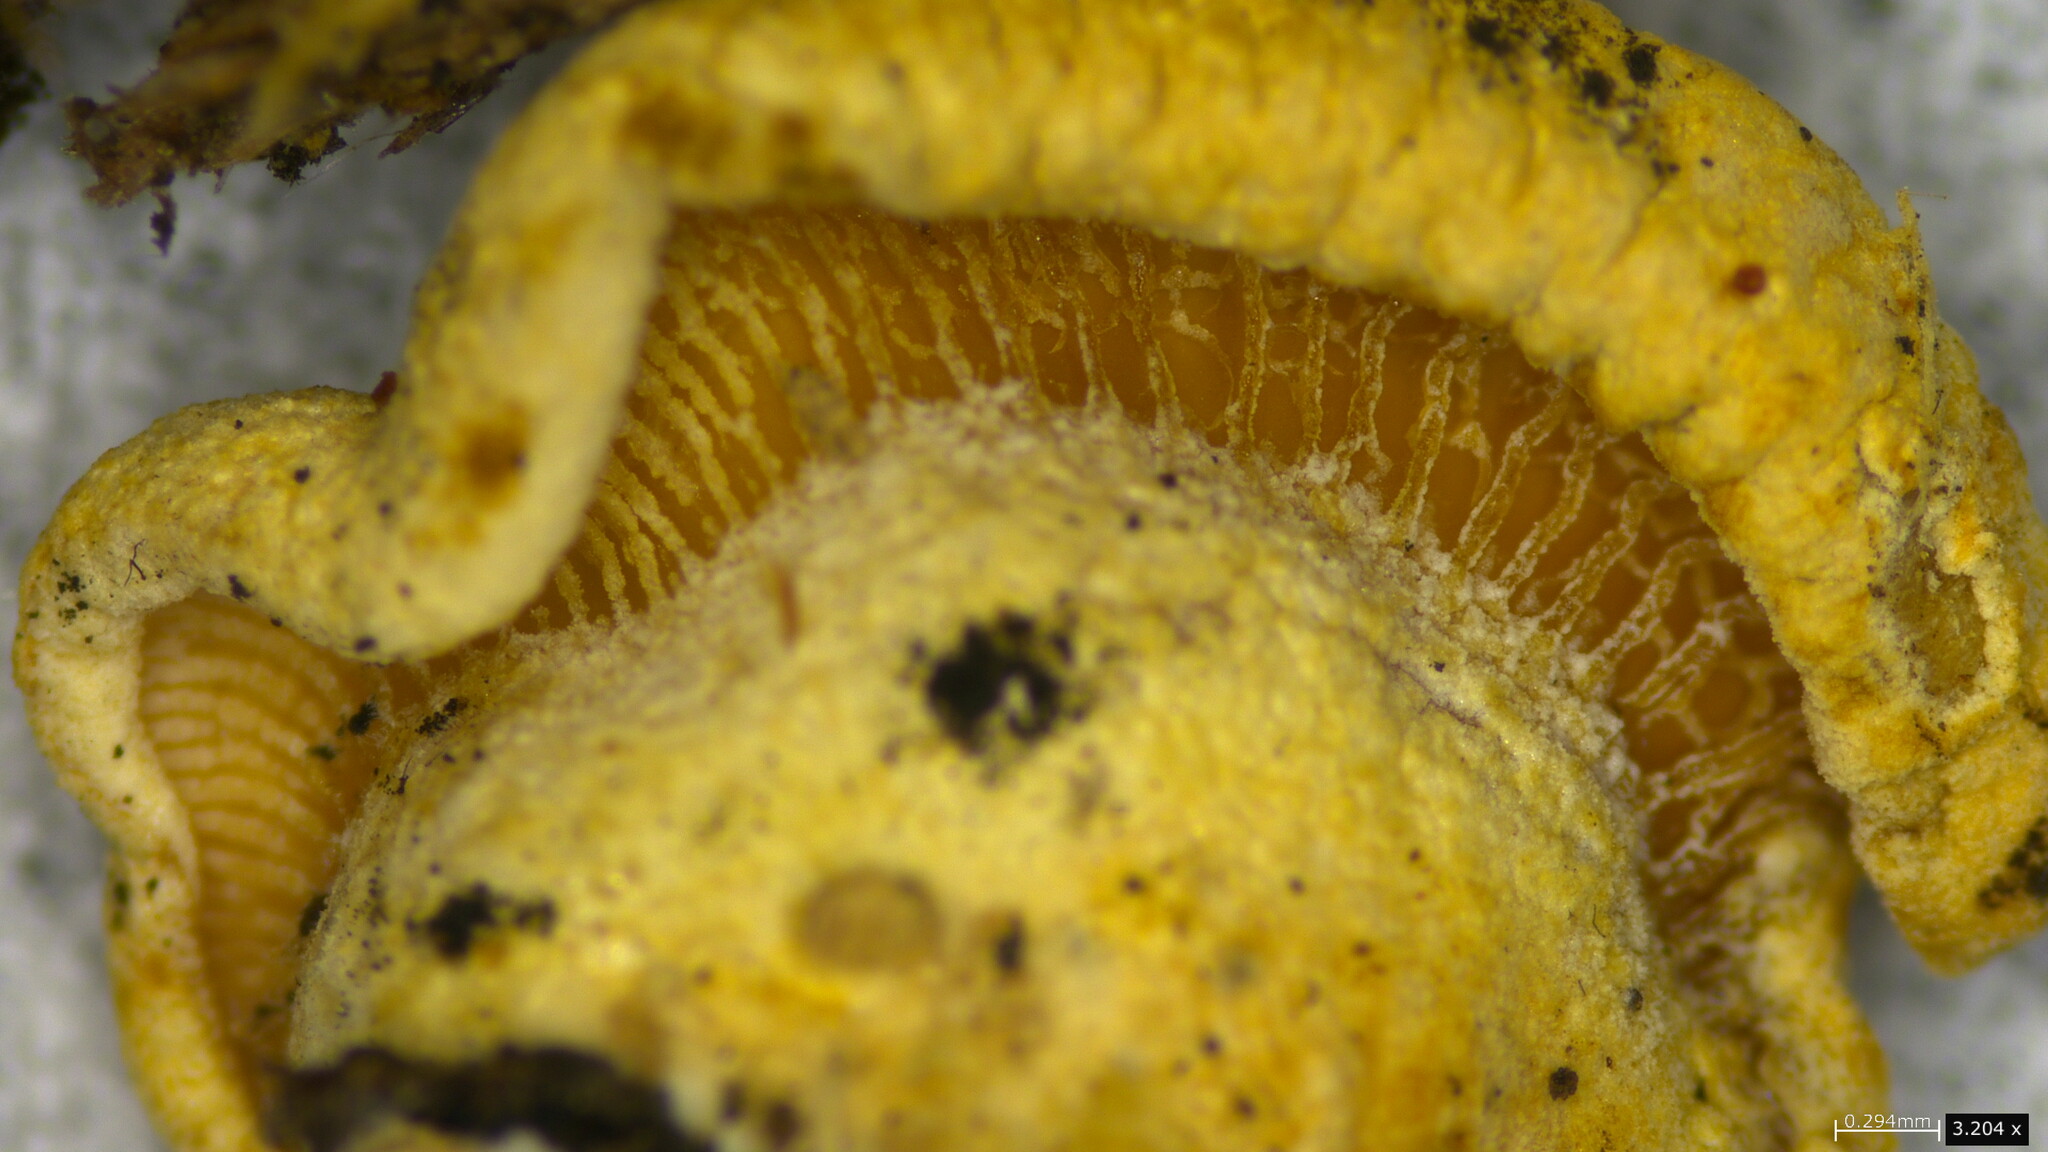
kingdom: Fungi
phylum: Basidiomycota
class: Agaricomycetes
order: Agaricales
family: Mycenaceae
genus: Panellus
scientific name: Panellus stipticus
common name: Bitter oysterling
